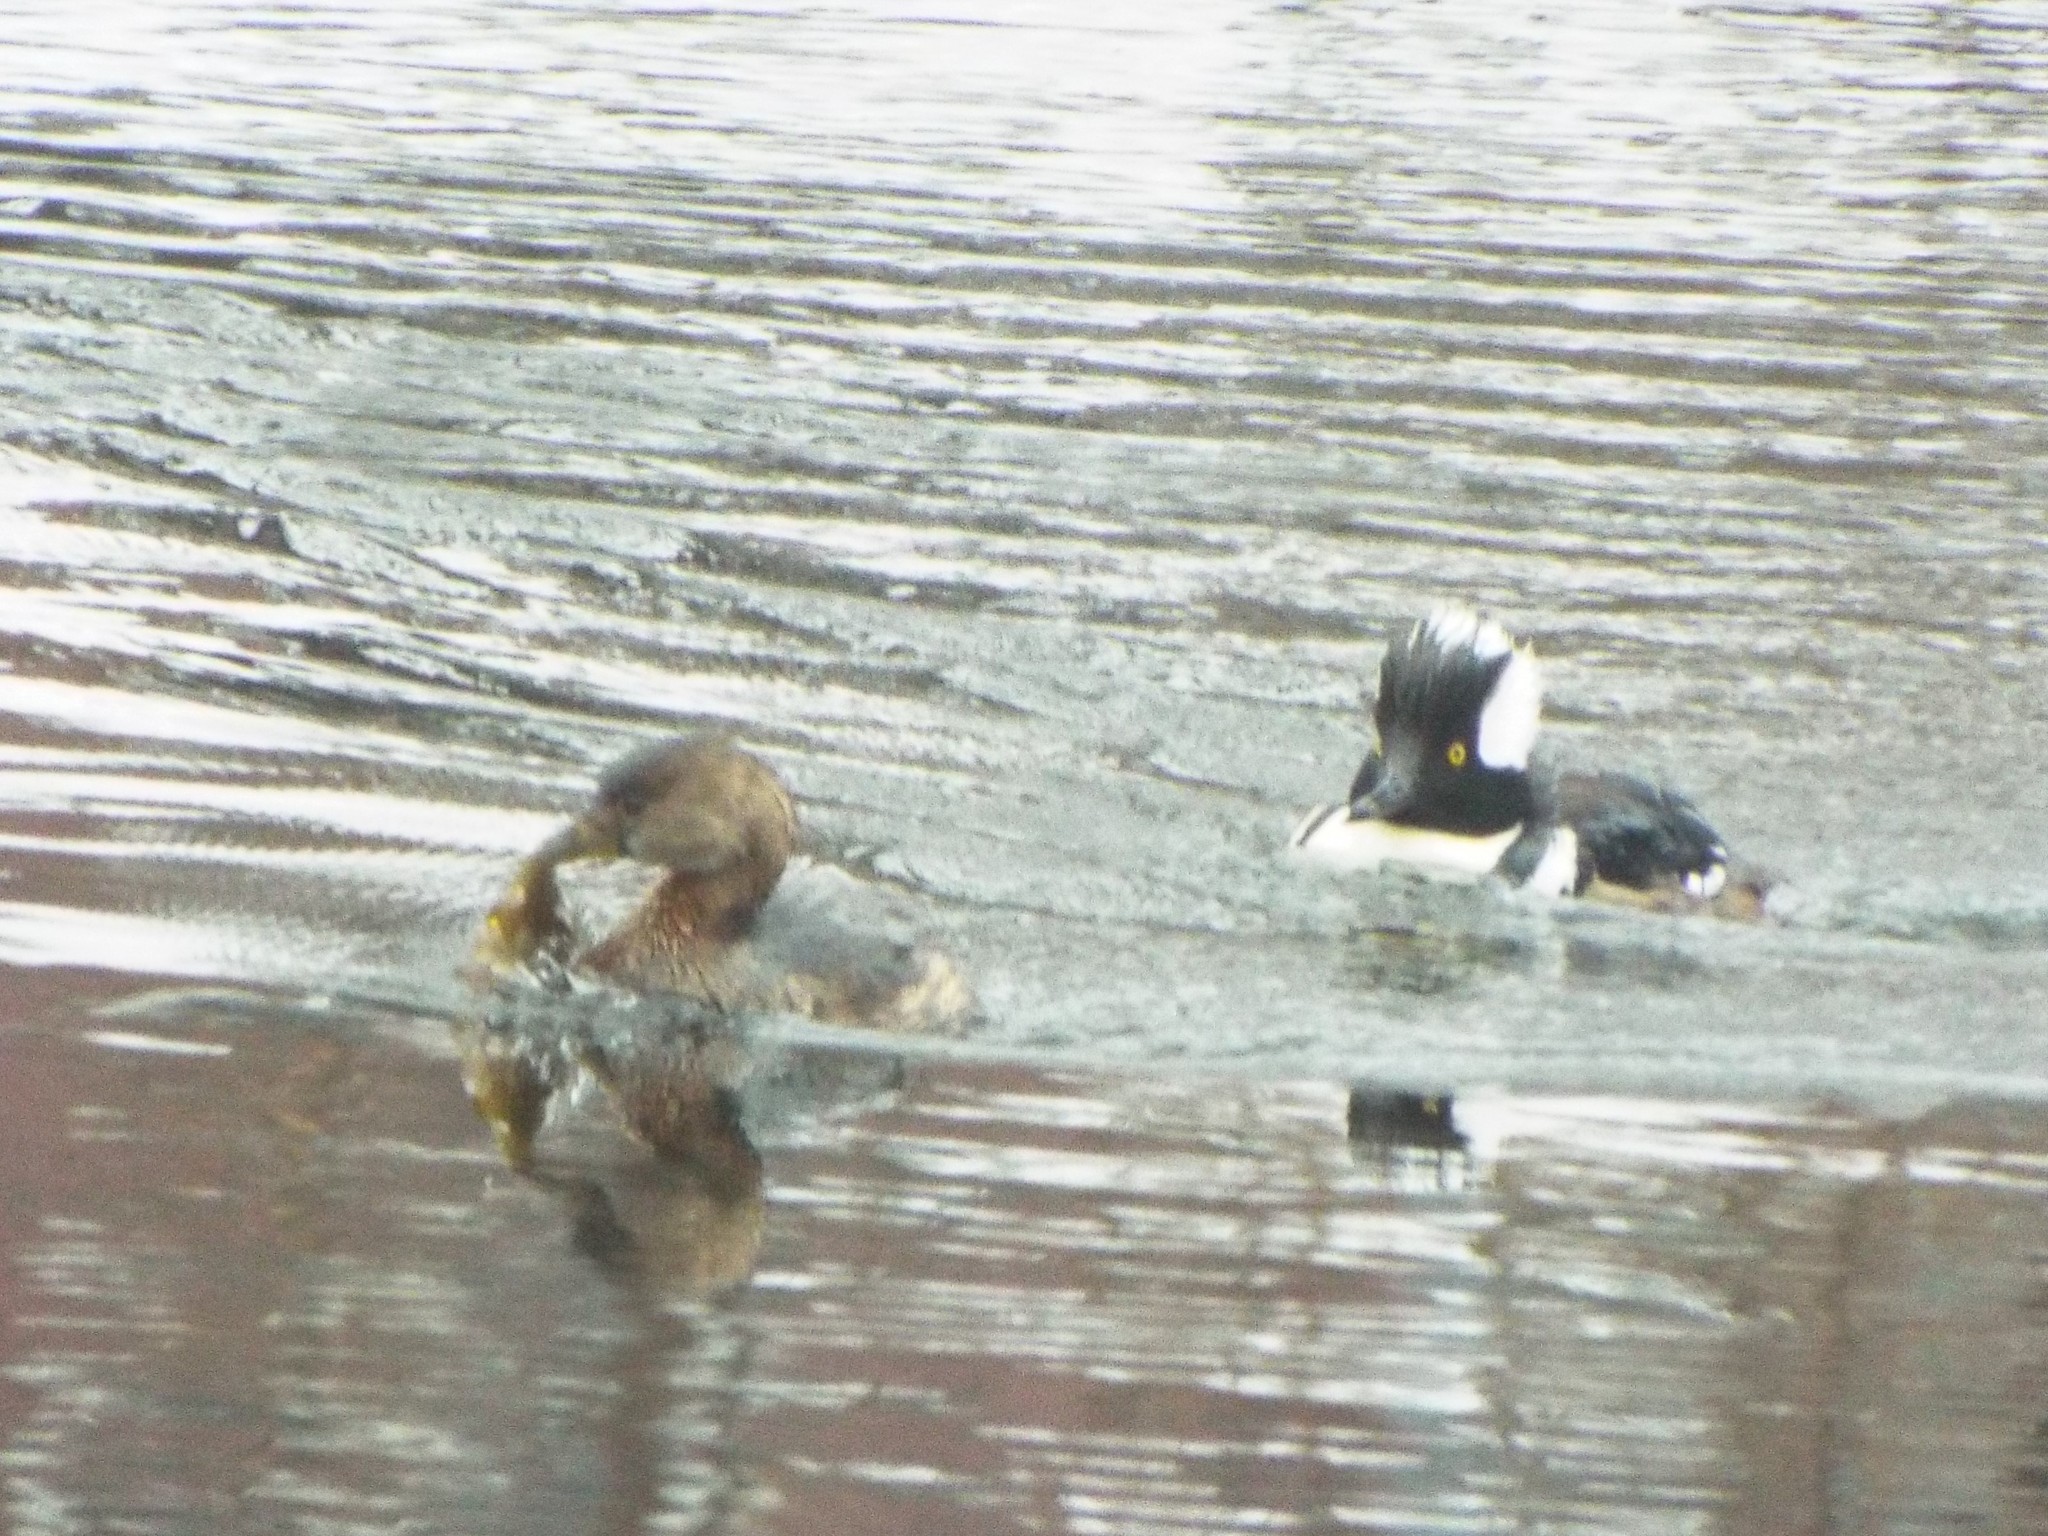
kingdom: Animalia
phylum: Chordata
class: Aves
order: Anseriformes
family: Anatidae
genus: Lophodytes
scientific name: Lophodytes cucullatus
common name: Hooded merganser
